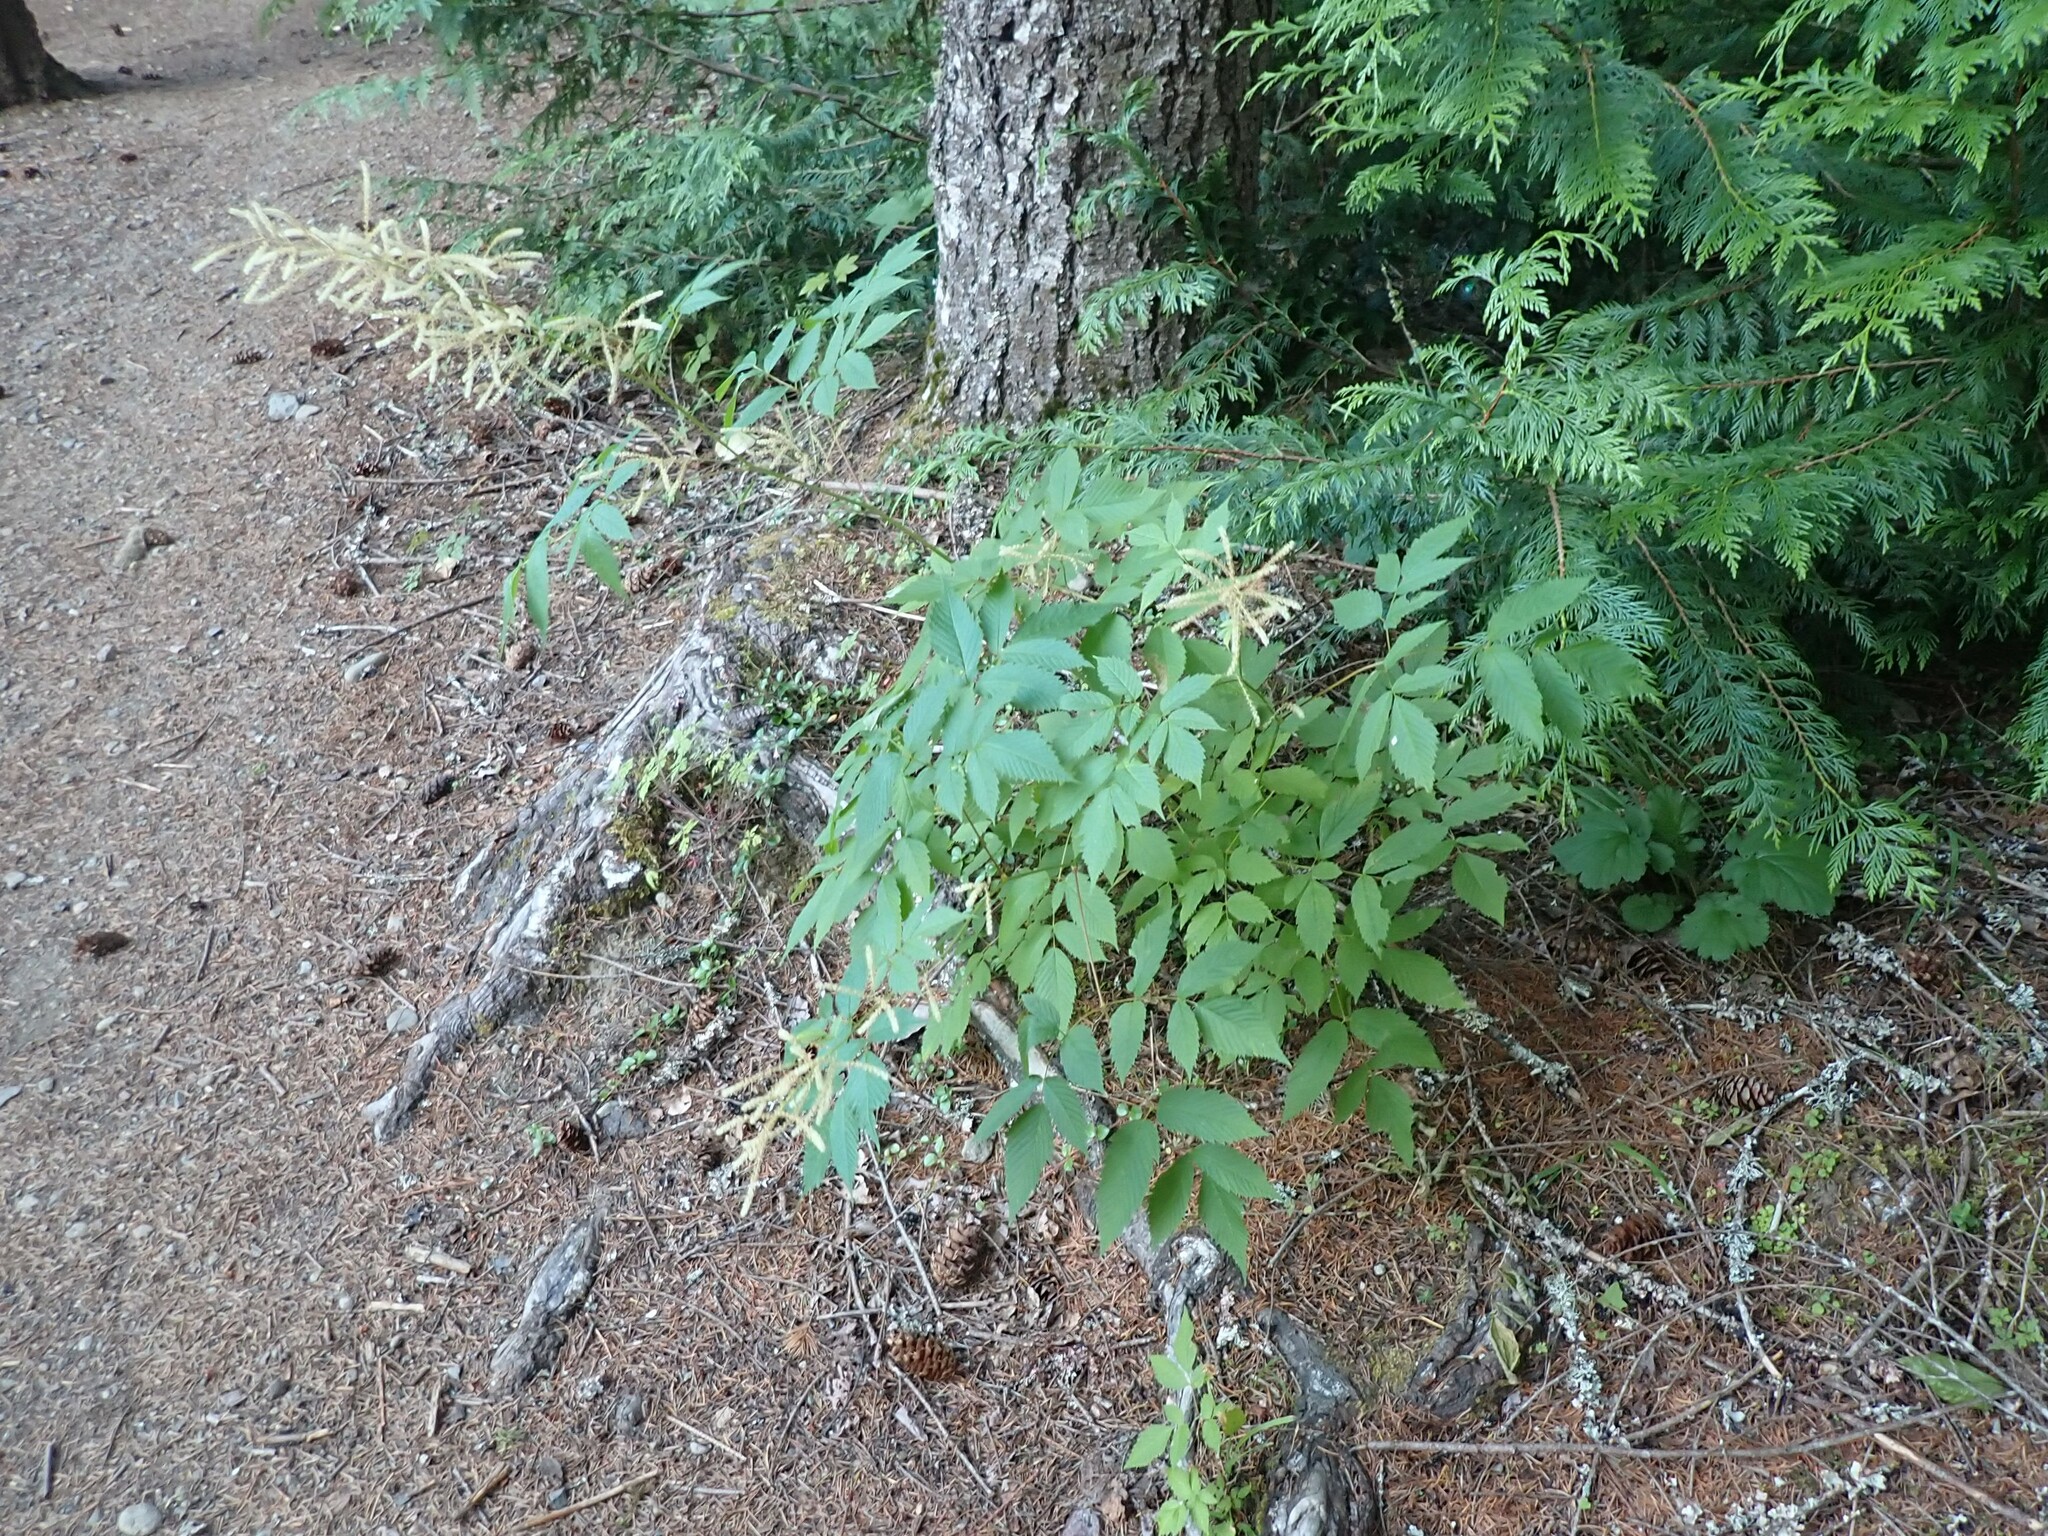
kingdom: Plantae
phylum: Tracheophyta
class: Magnoliopsida
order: Rosales
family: Rosaceae
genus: Aruncus
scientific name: Aruncus dioicus
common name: Buck's-beard
